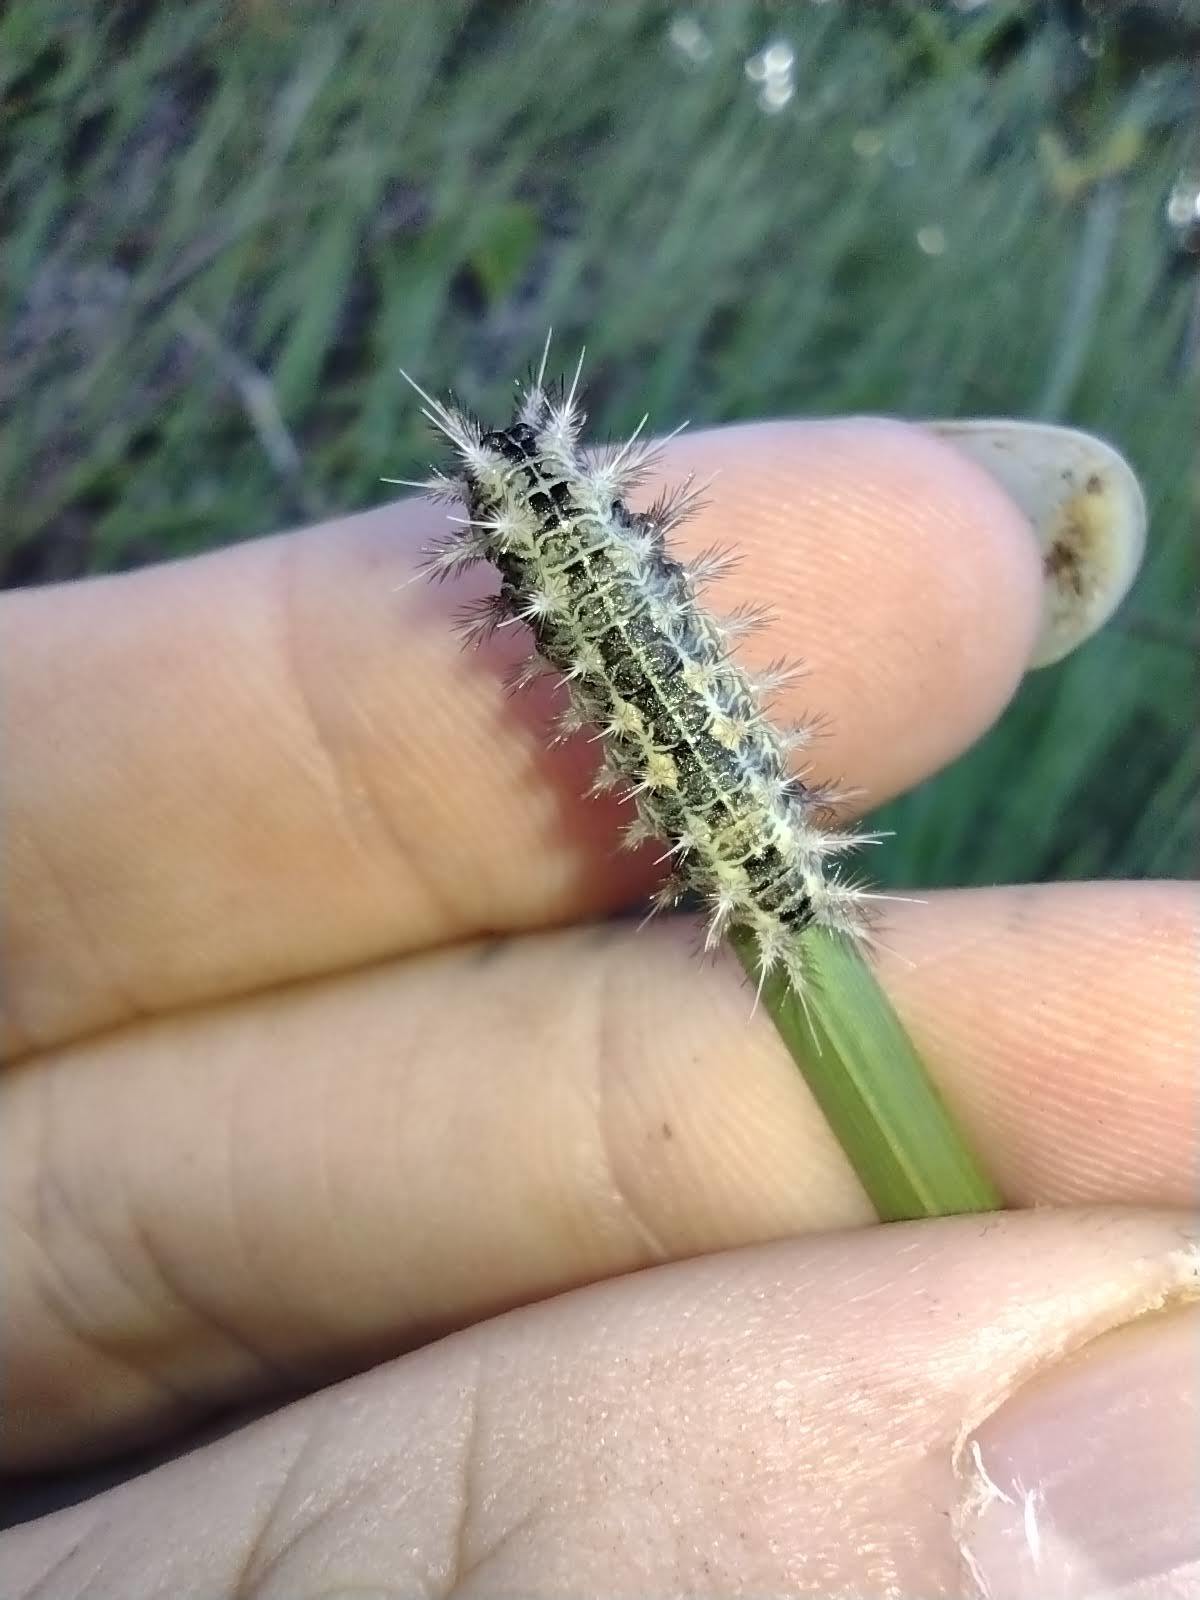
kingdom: Animalia
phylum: Arthropoda
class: Insecta
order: Lepidoptera
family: Limacodidae
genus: Oxyplax
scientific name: Oxyplax pallivitta
